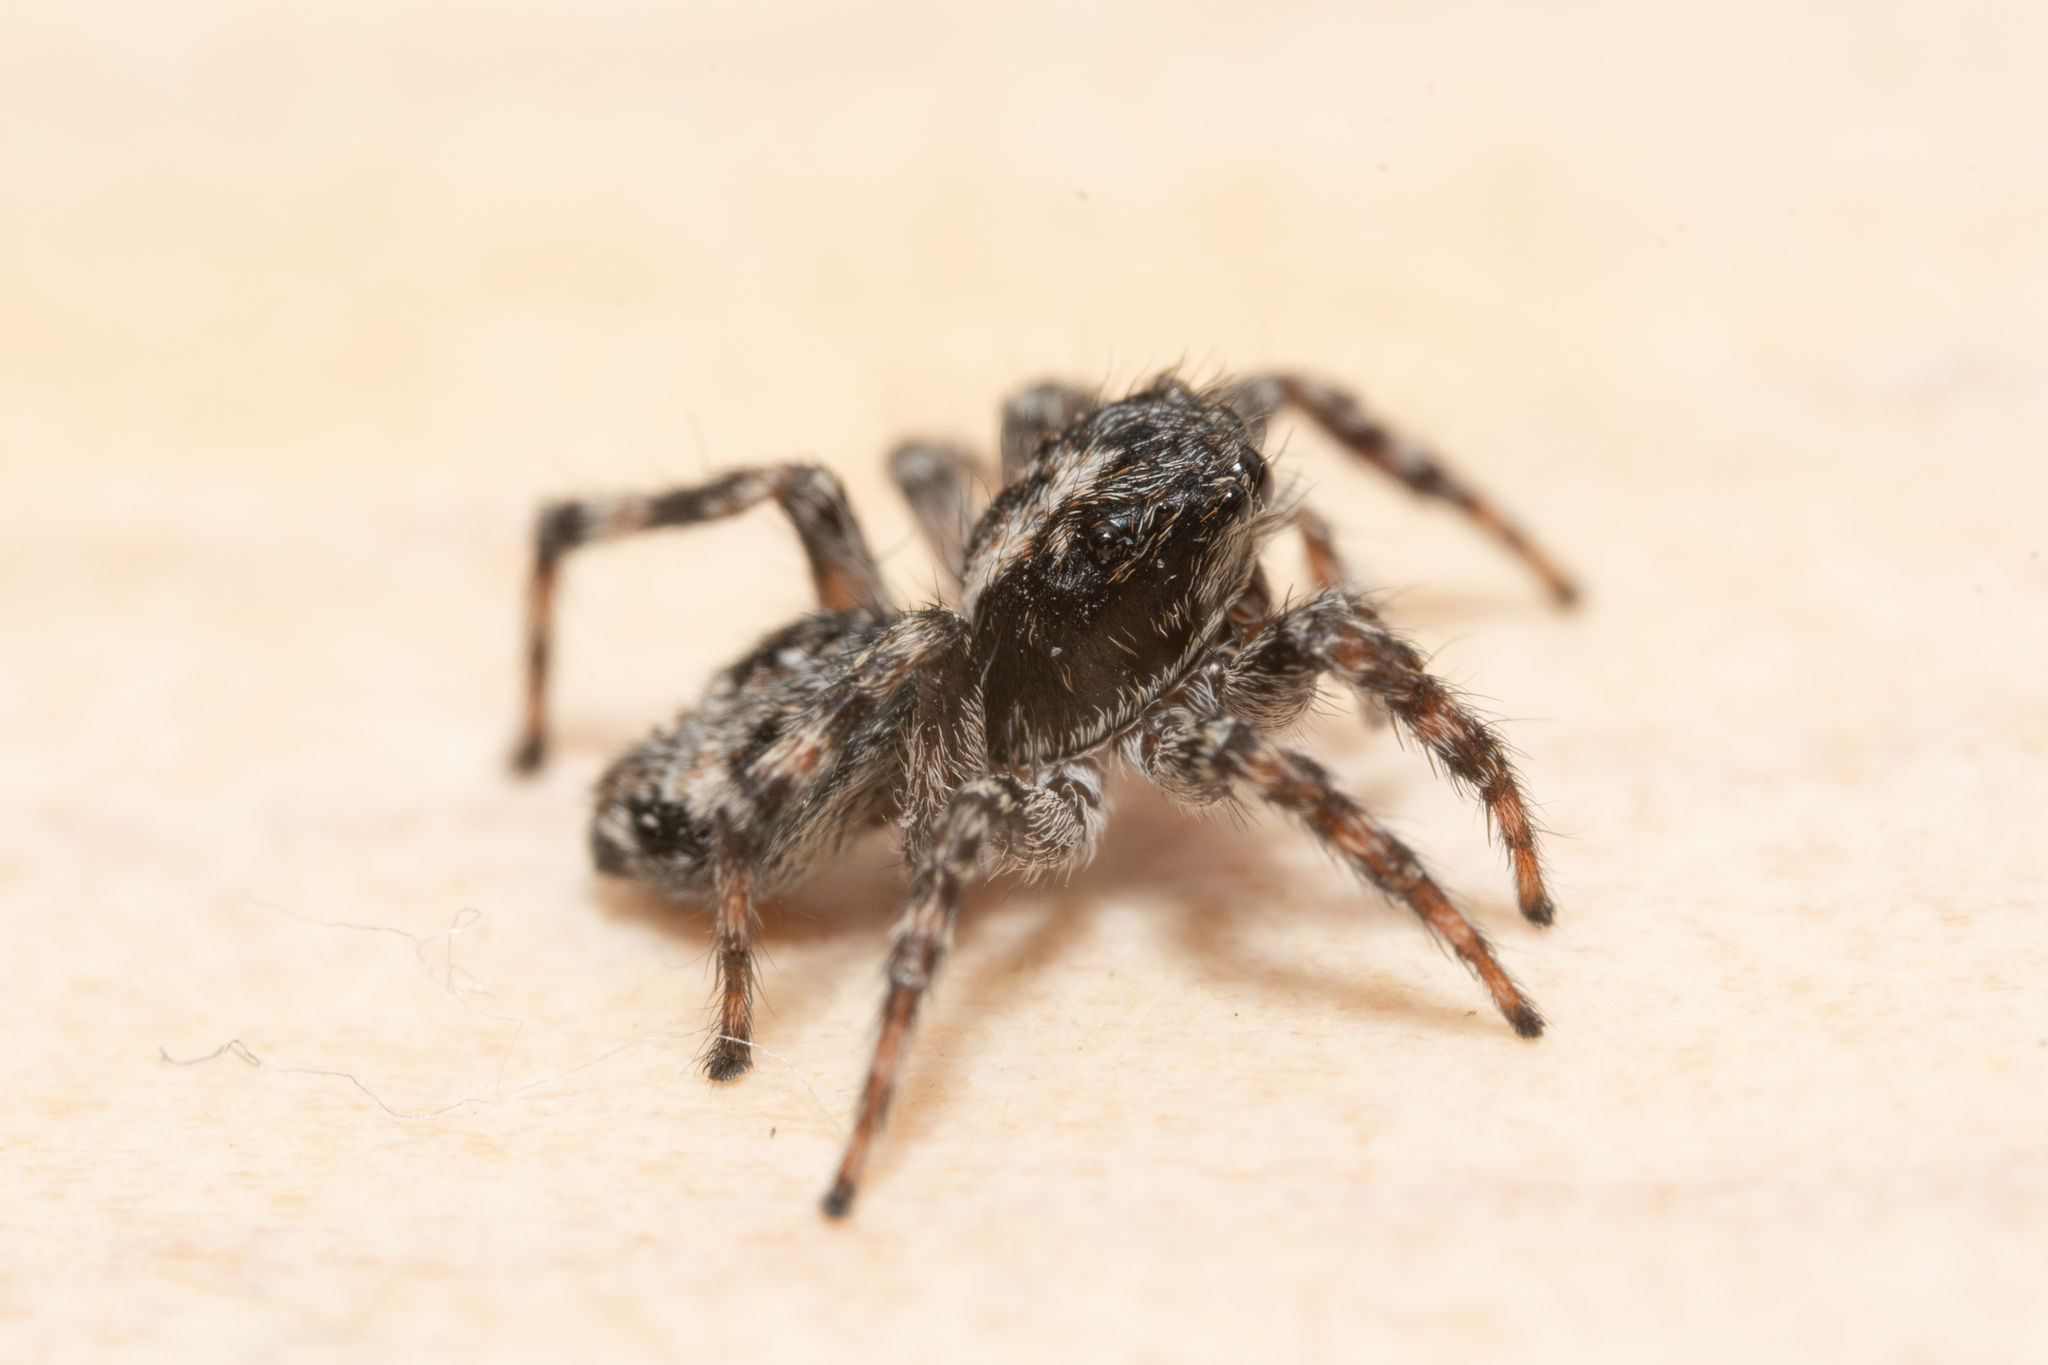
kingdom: Animalia
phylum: Arthropoda
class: Arachnida
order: Araneae
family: Salticidae
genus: Attulus
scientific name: Attulus terebratus
